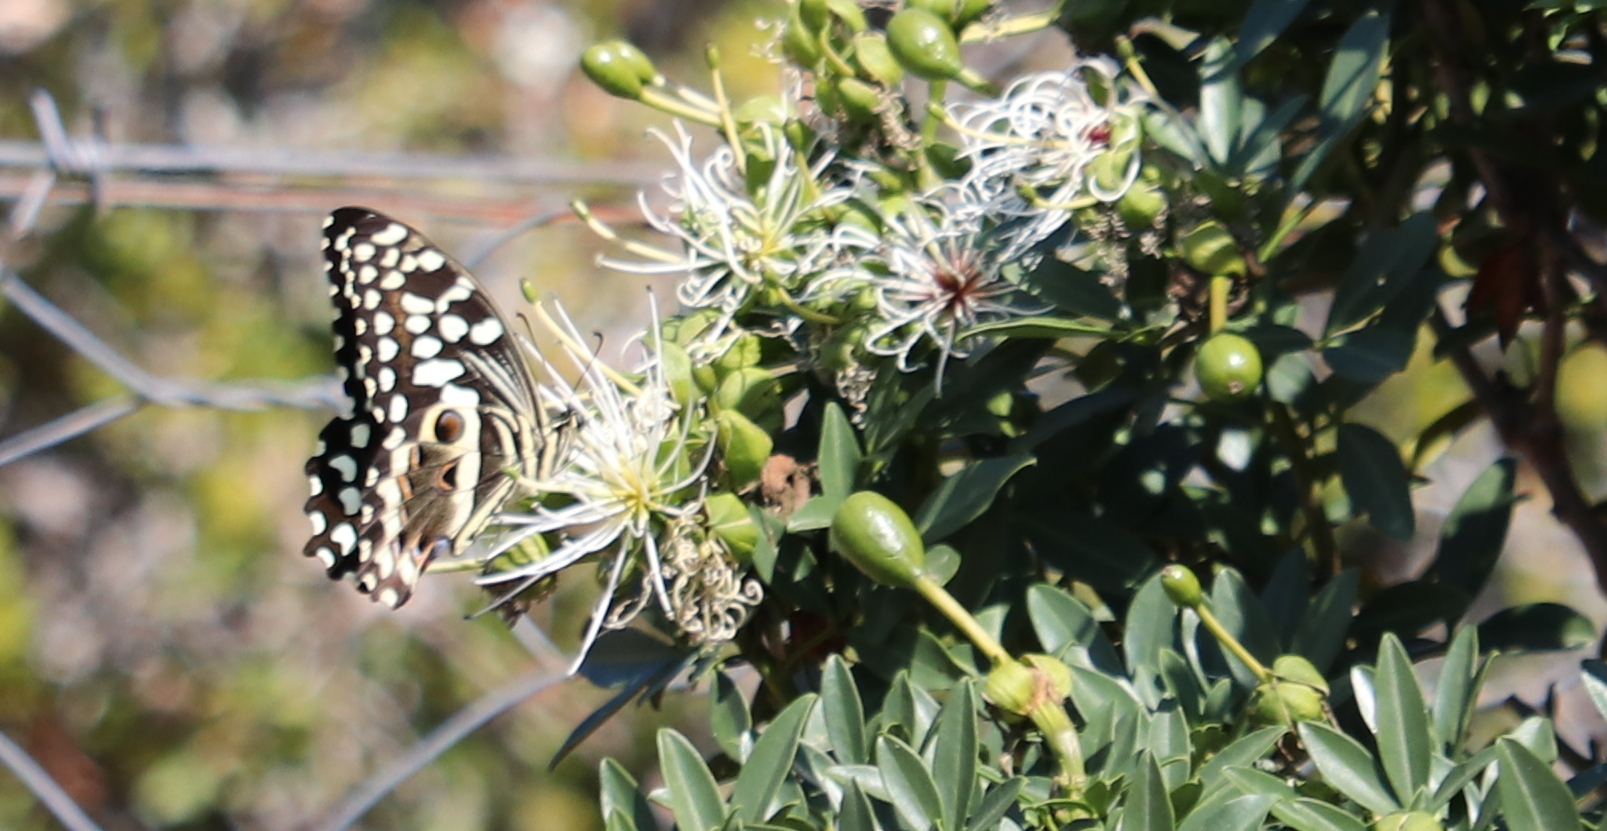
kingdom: Animalia
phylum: Arthropoda
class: Insecta
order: Lepidoptera
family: Papilionidae
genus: Papilio
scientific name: Papilio demodocus
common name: Christmas butterfly
